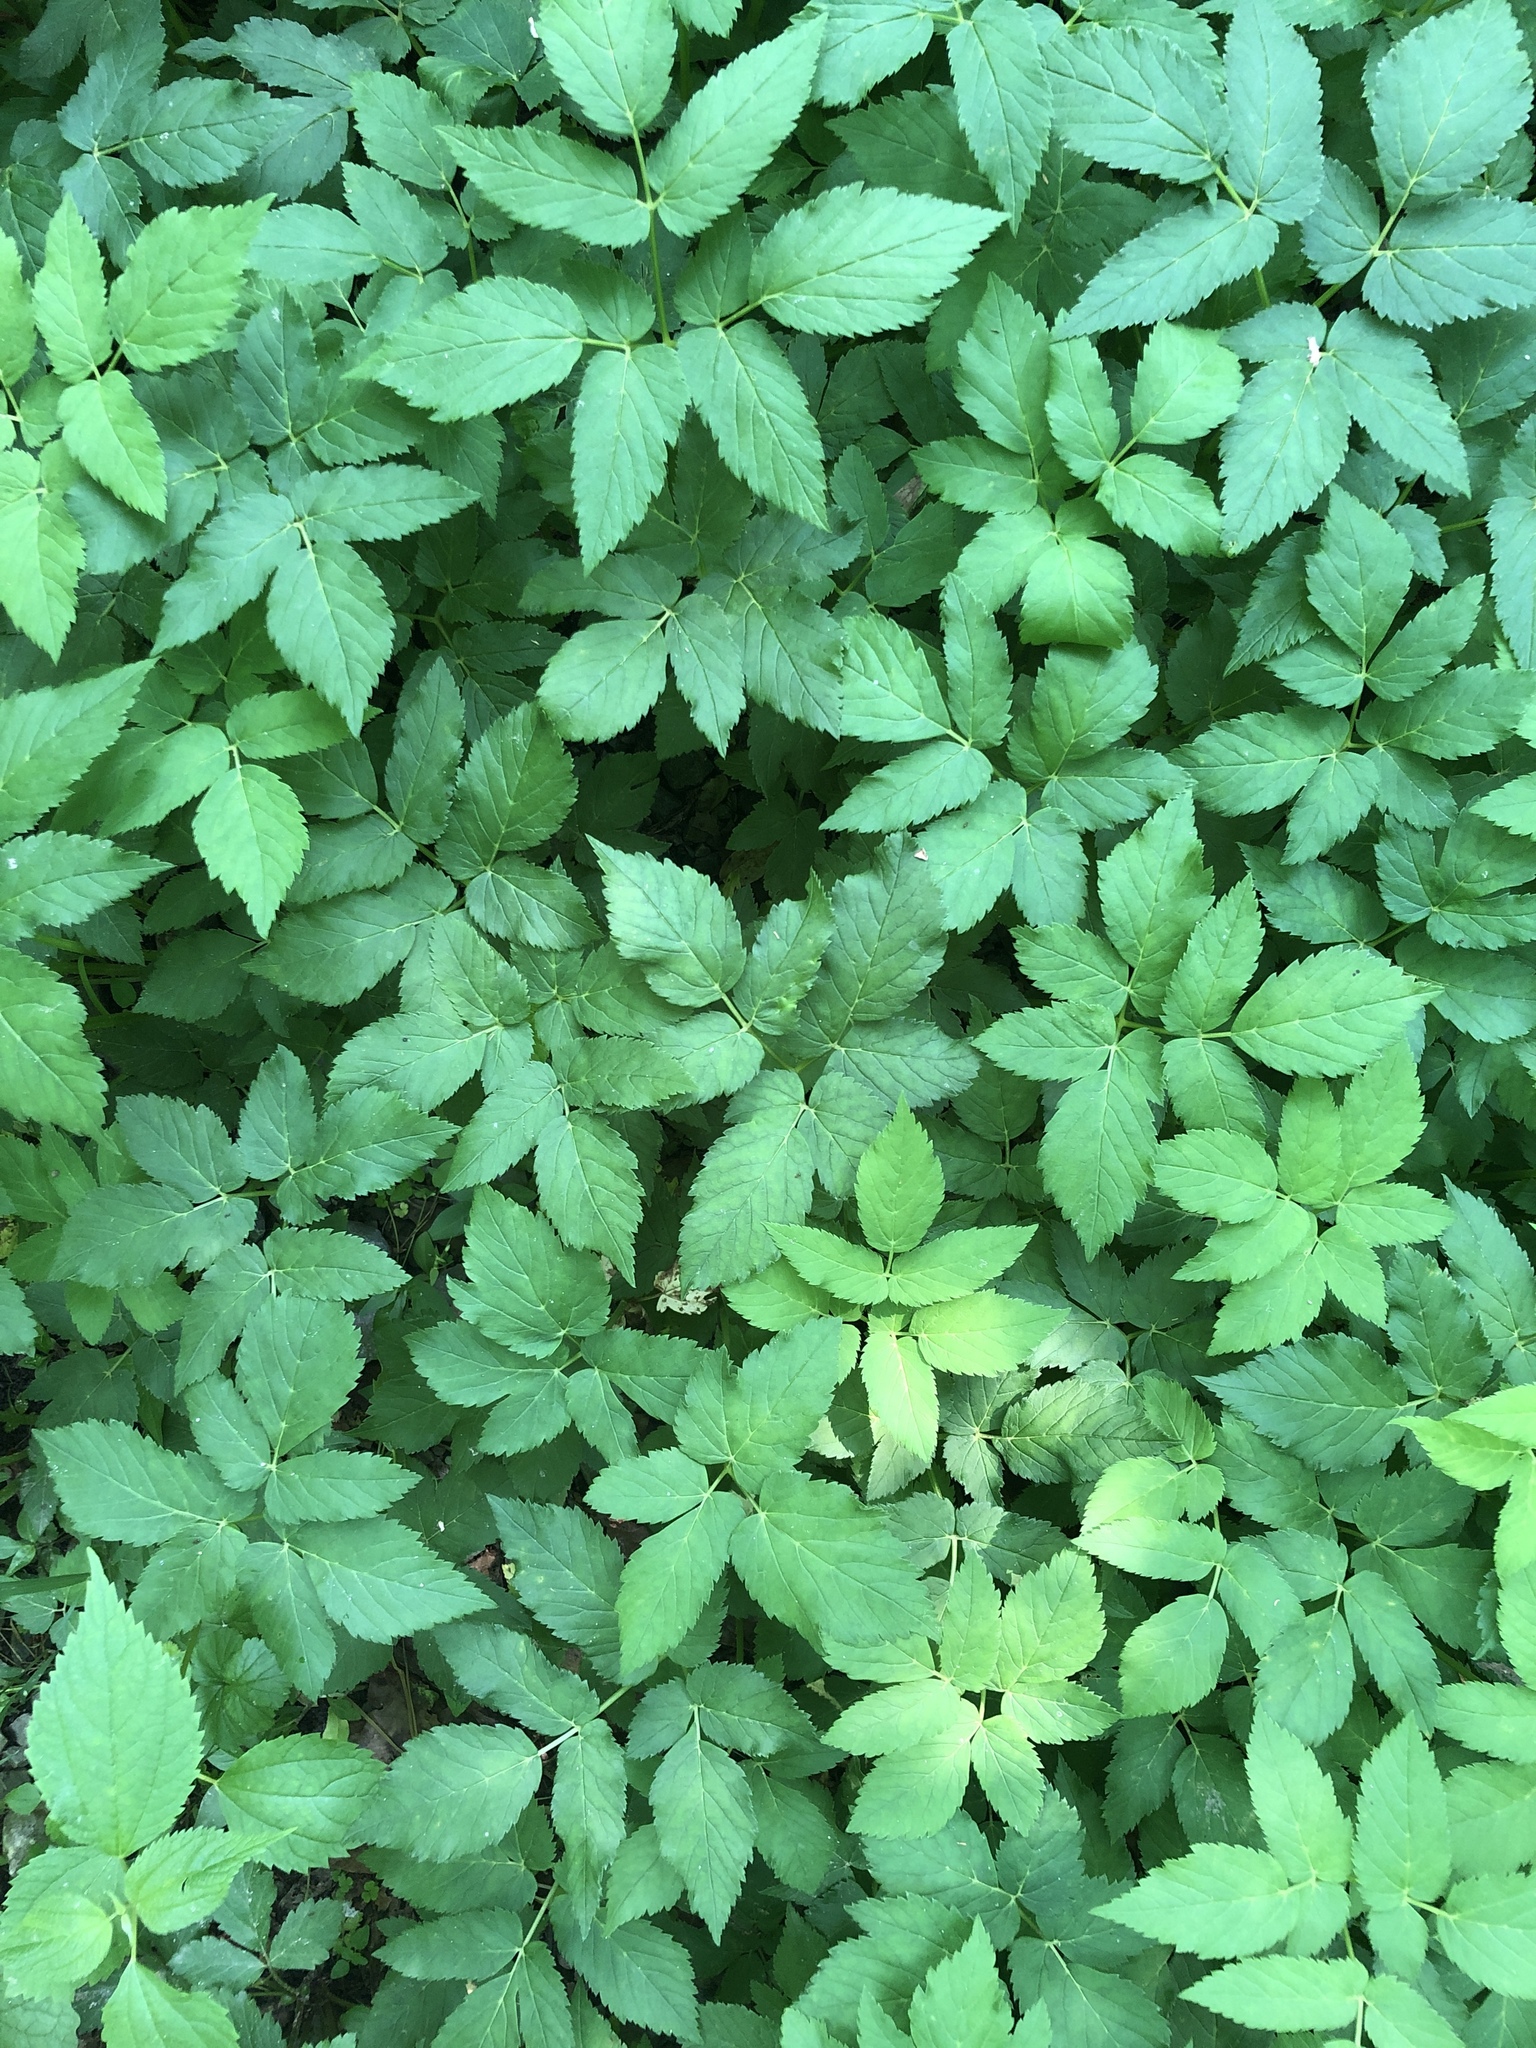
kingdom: Plantae
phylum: Tracheophyta
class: Magnoliopsida
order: Apiales
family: Apiaceae
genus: Aegopodium
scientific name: Aegopodium podagraria
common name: Ground-elder
